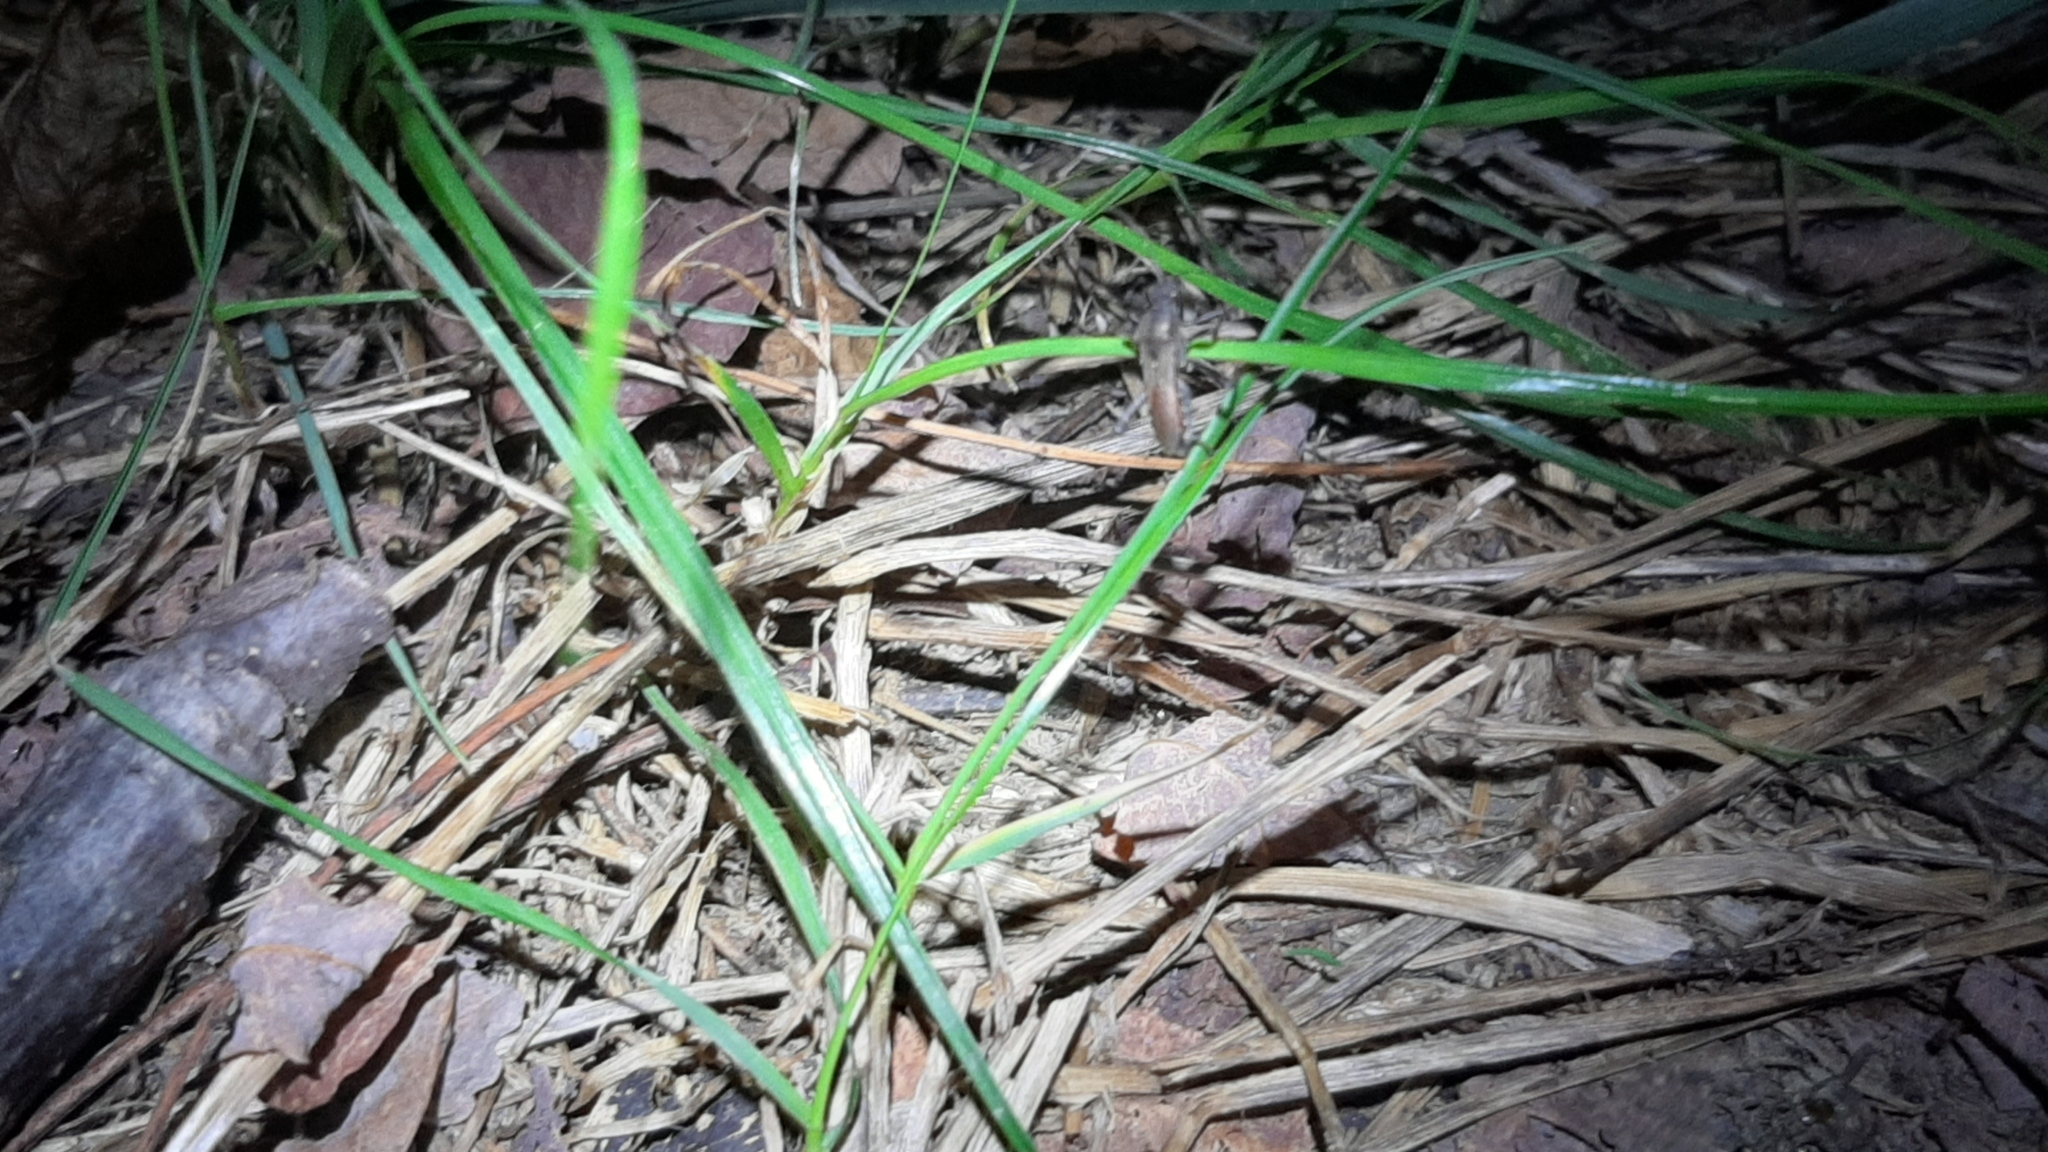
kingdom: Animalia
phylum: Arthropoda
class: Insecta
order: Hemiptera
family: Alydidae
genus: Alydus
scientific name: Alydus calcaratus
